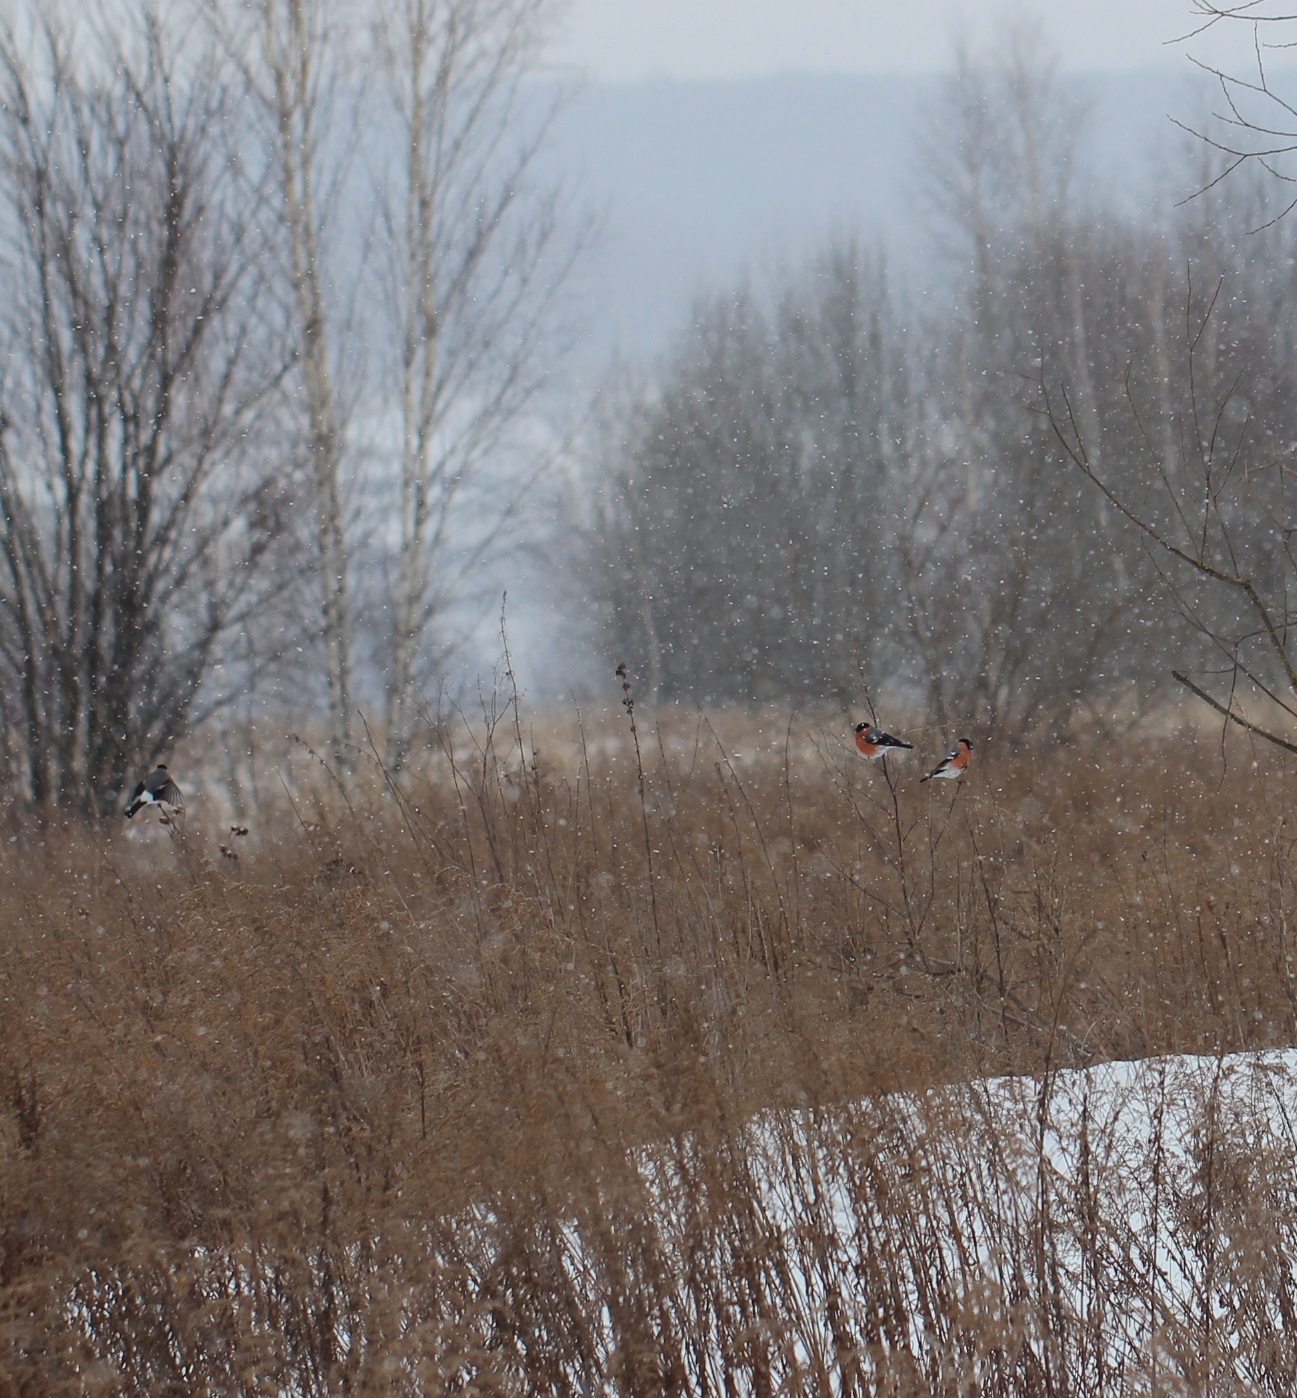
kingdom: Animalia
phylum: Chordata
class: Aves
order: Passeriformes
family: Fringillidae
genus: Pyrrhula
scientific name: Pyrrhula pyrrhula
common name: Eurasian bullfinch
